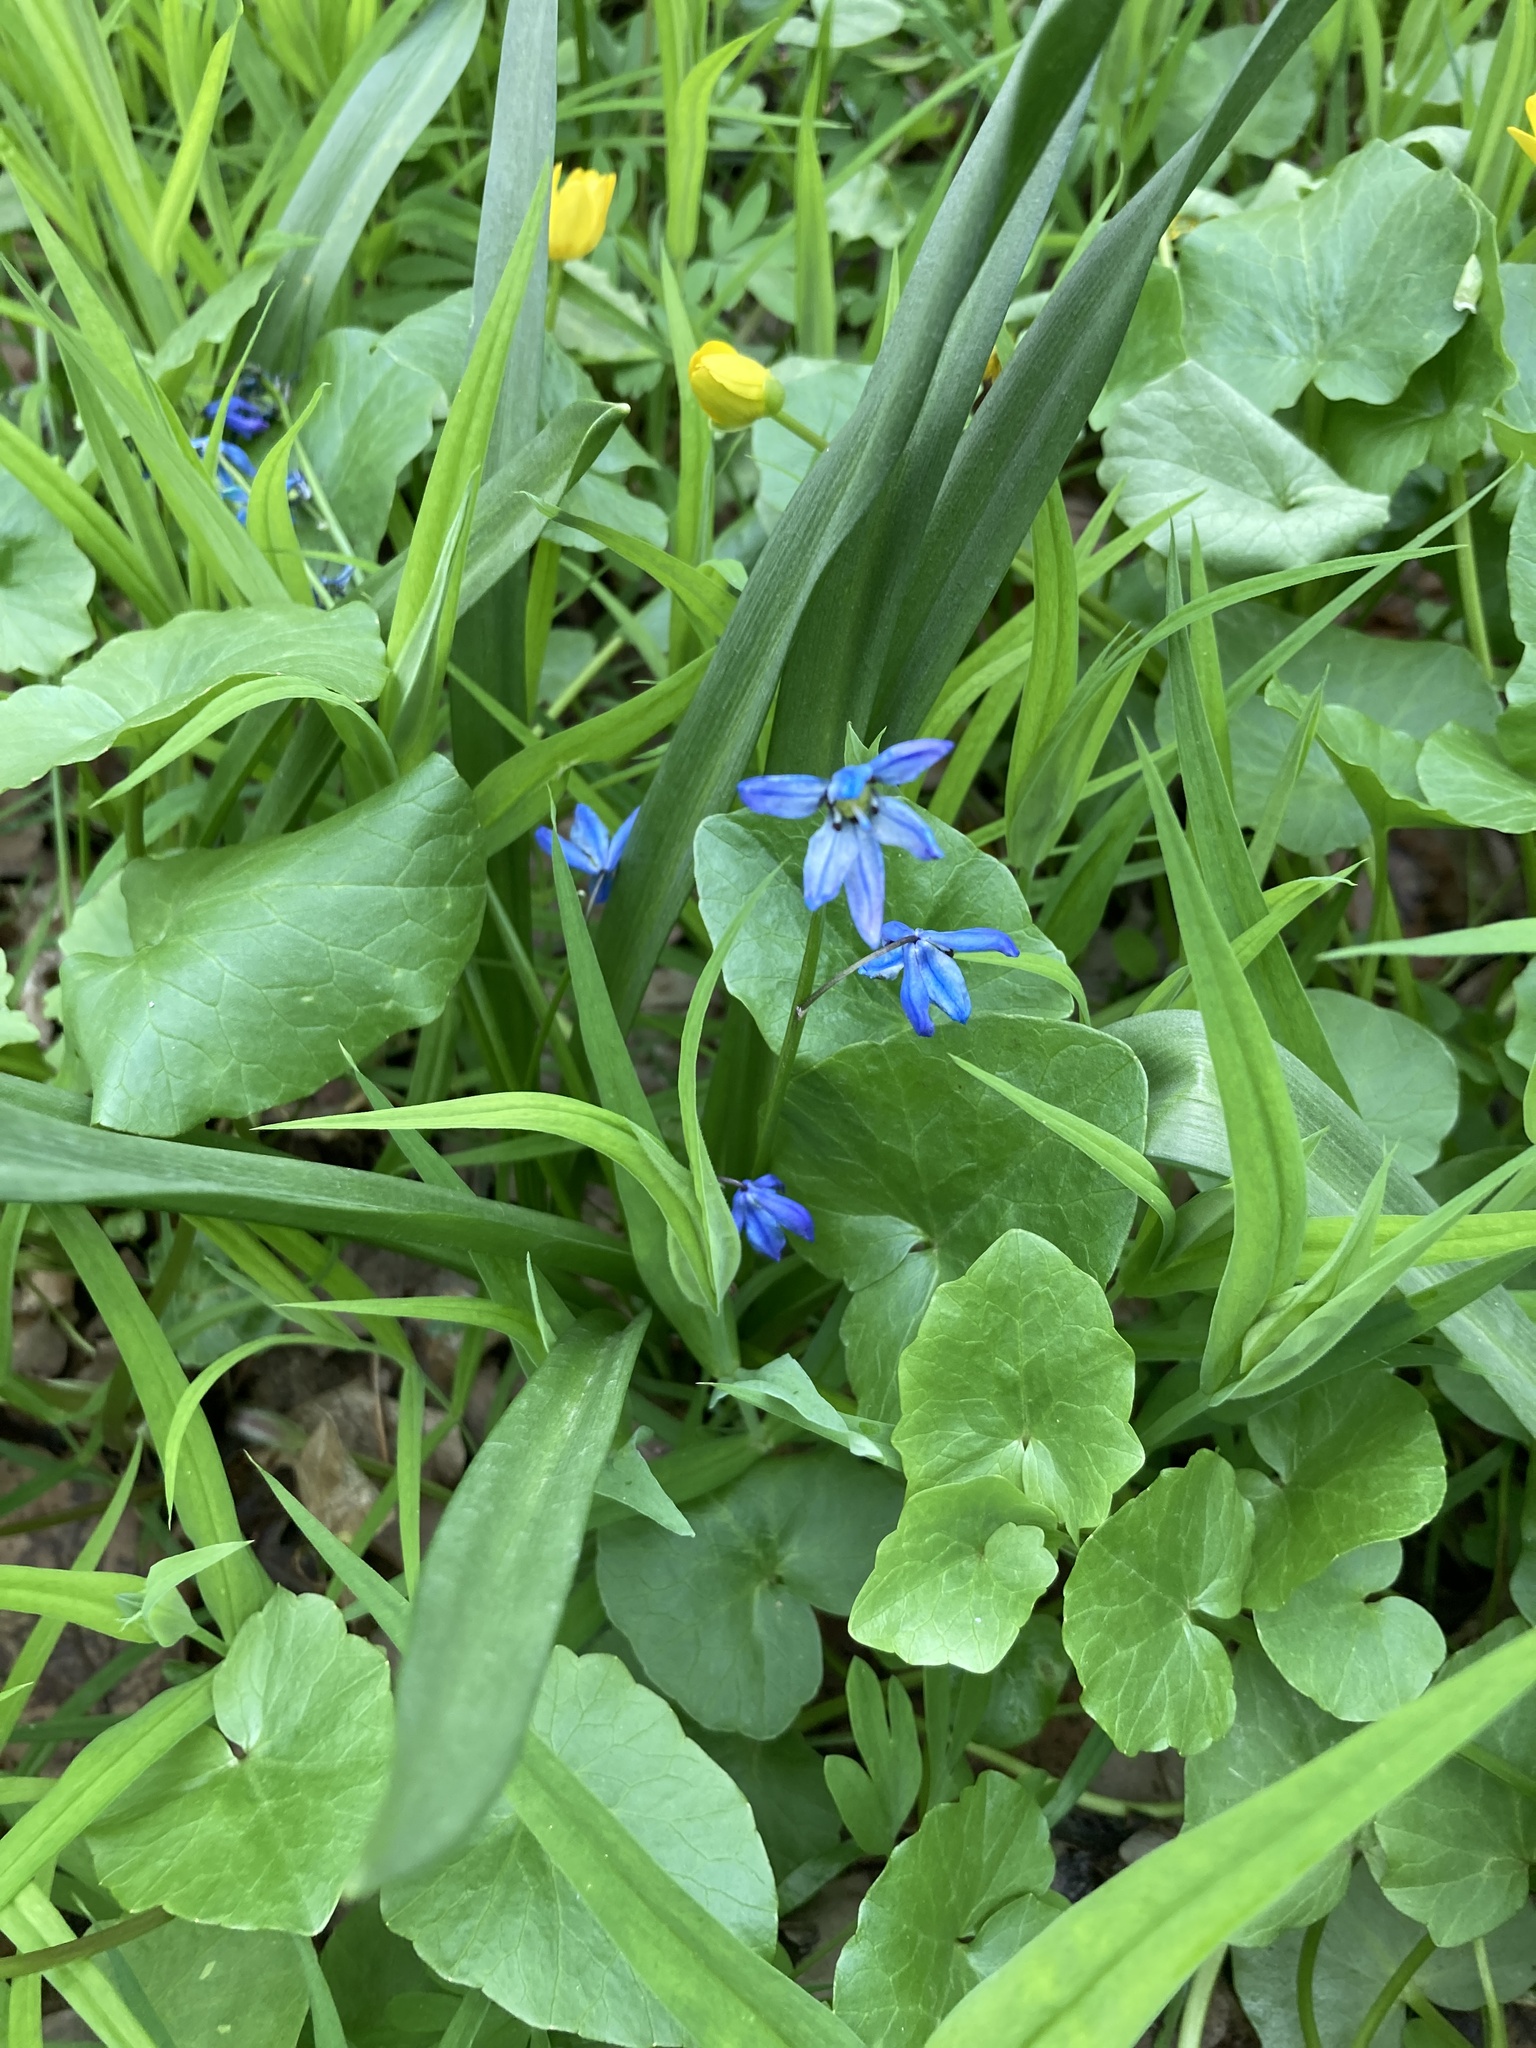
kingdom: Plantae
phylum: Tracheophyta
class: Liliopsida
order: Asparagales
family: Asparagaceae
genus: Scilla
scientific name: Scilla siberica
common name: Siberian squill
